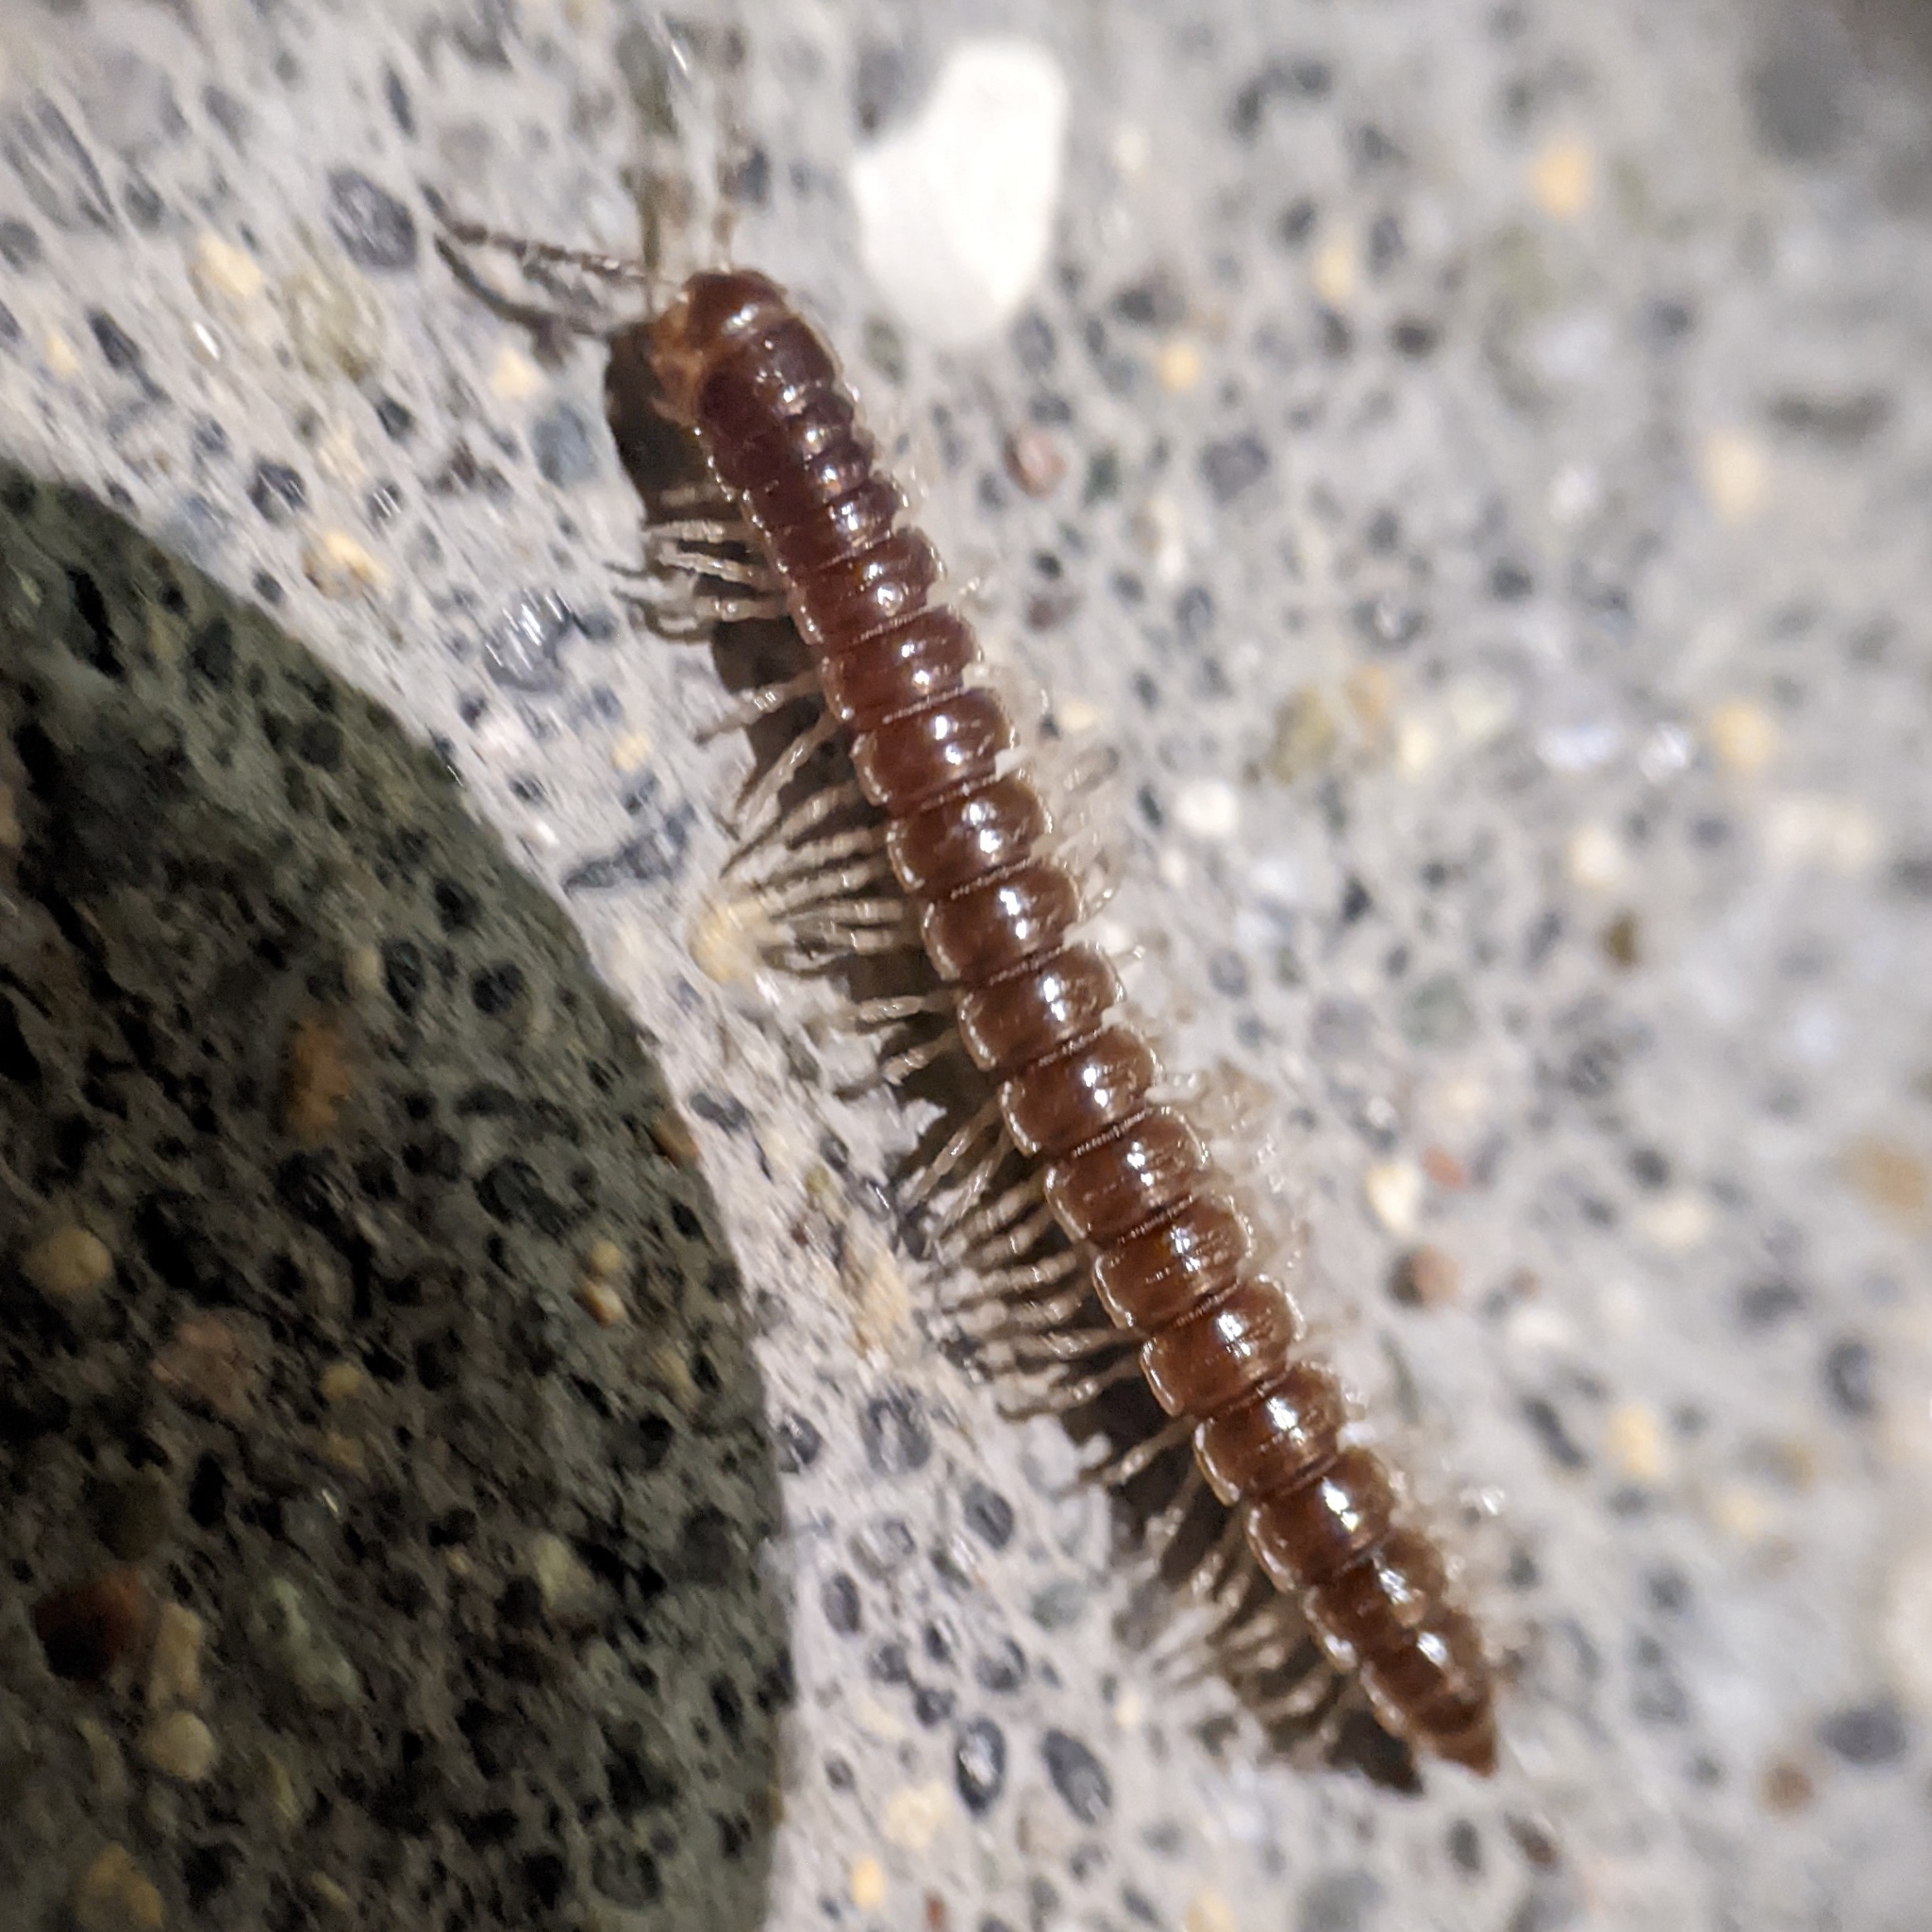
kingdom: Animalia
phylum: Arthropoda
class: Diplopoda
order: Polydesmida
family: Paradoxosomatidae
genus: Oxidus
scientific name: Oxidus gracilis
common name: Greenhouse millipede
